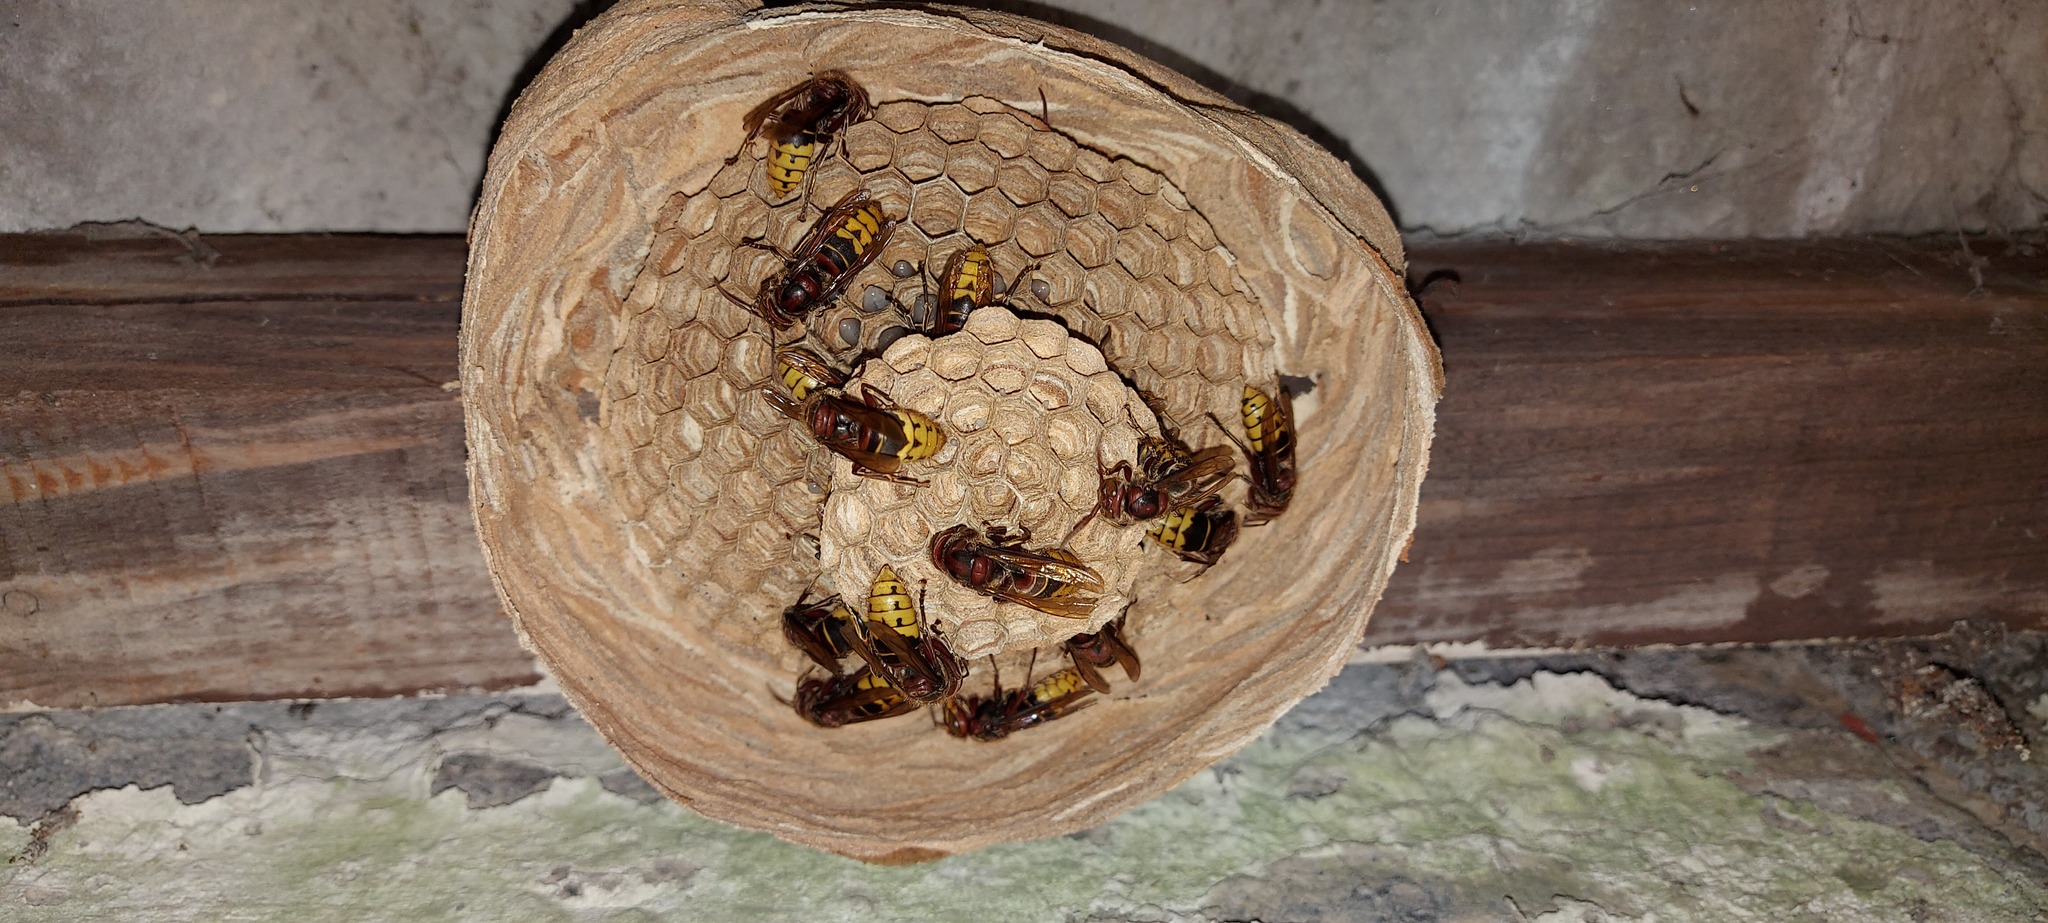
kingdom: Animalia
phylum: Arthropoda
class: Insecta
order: Hymenoptera
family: Vespidae
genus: Vespa
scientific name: Vespa crabro
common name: Hornet
